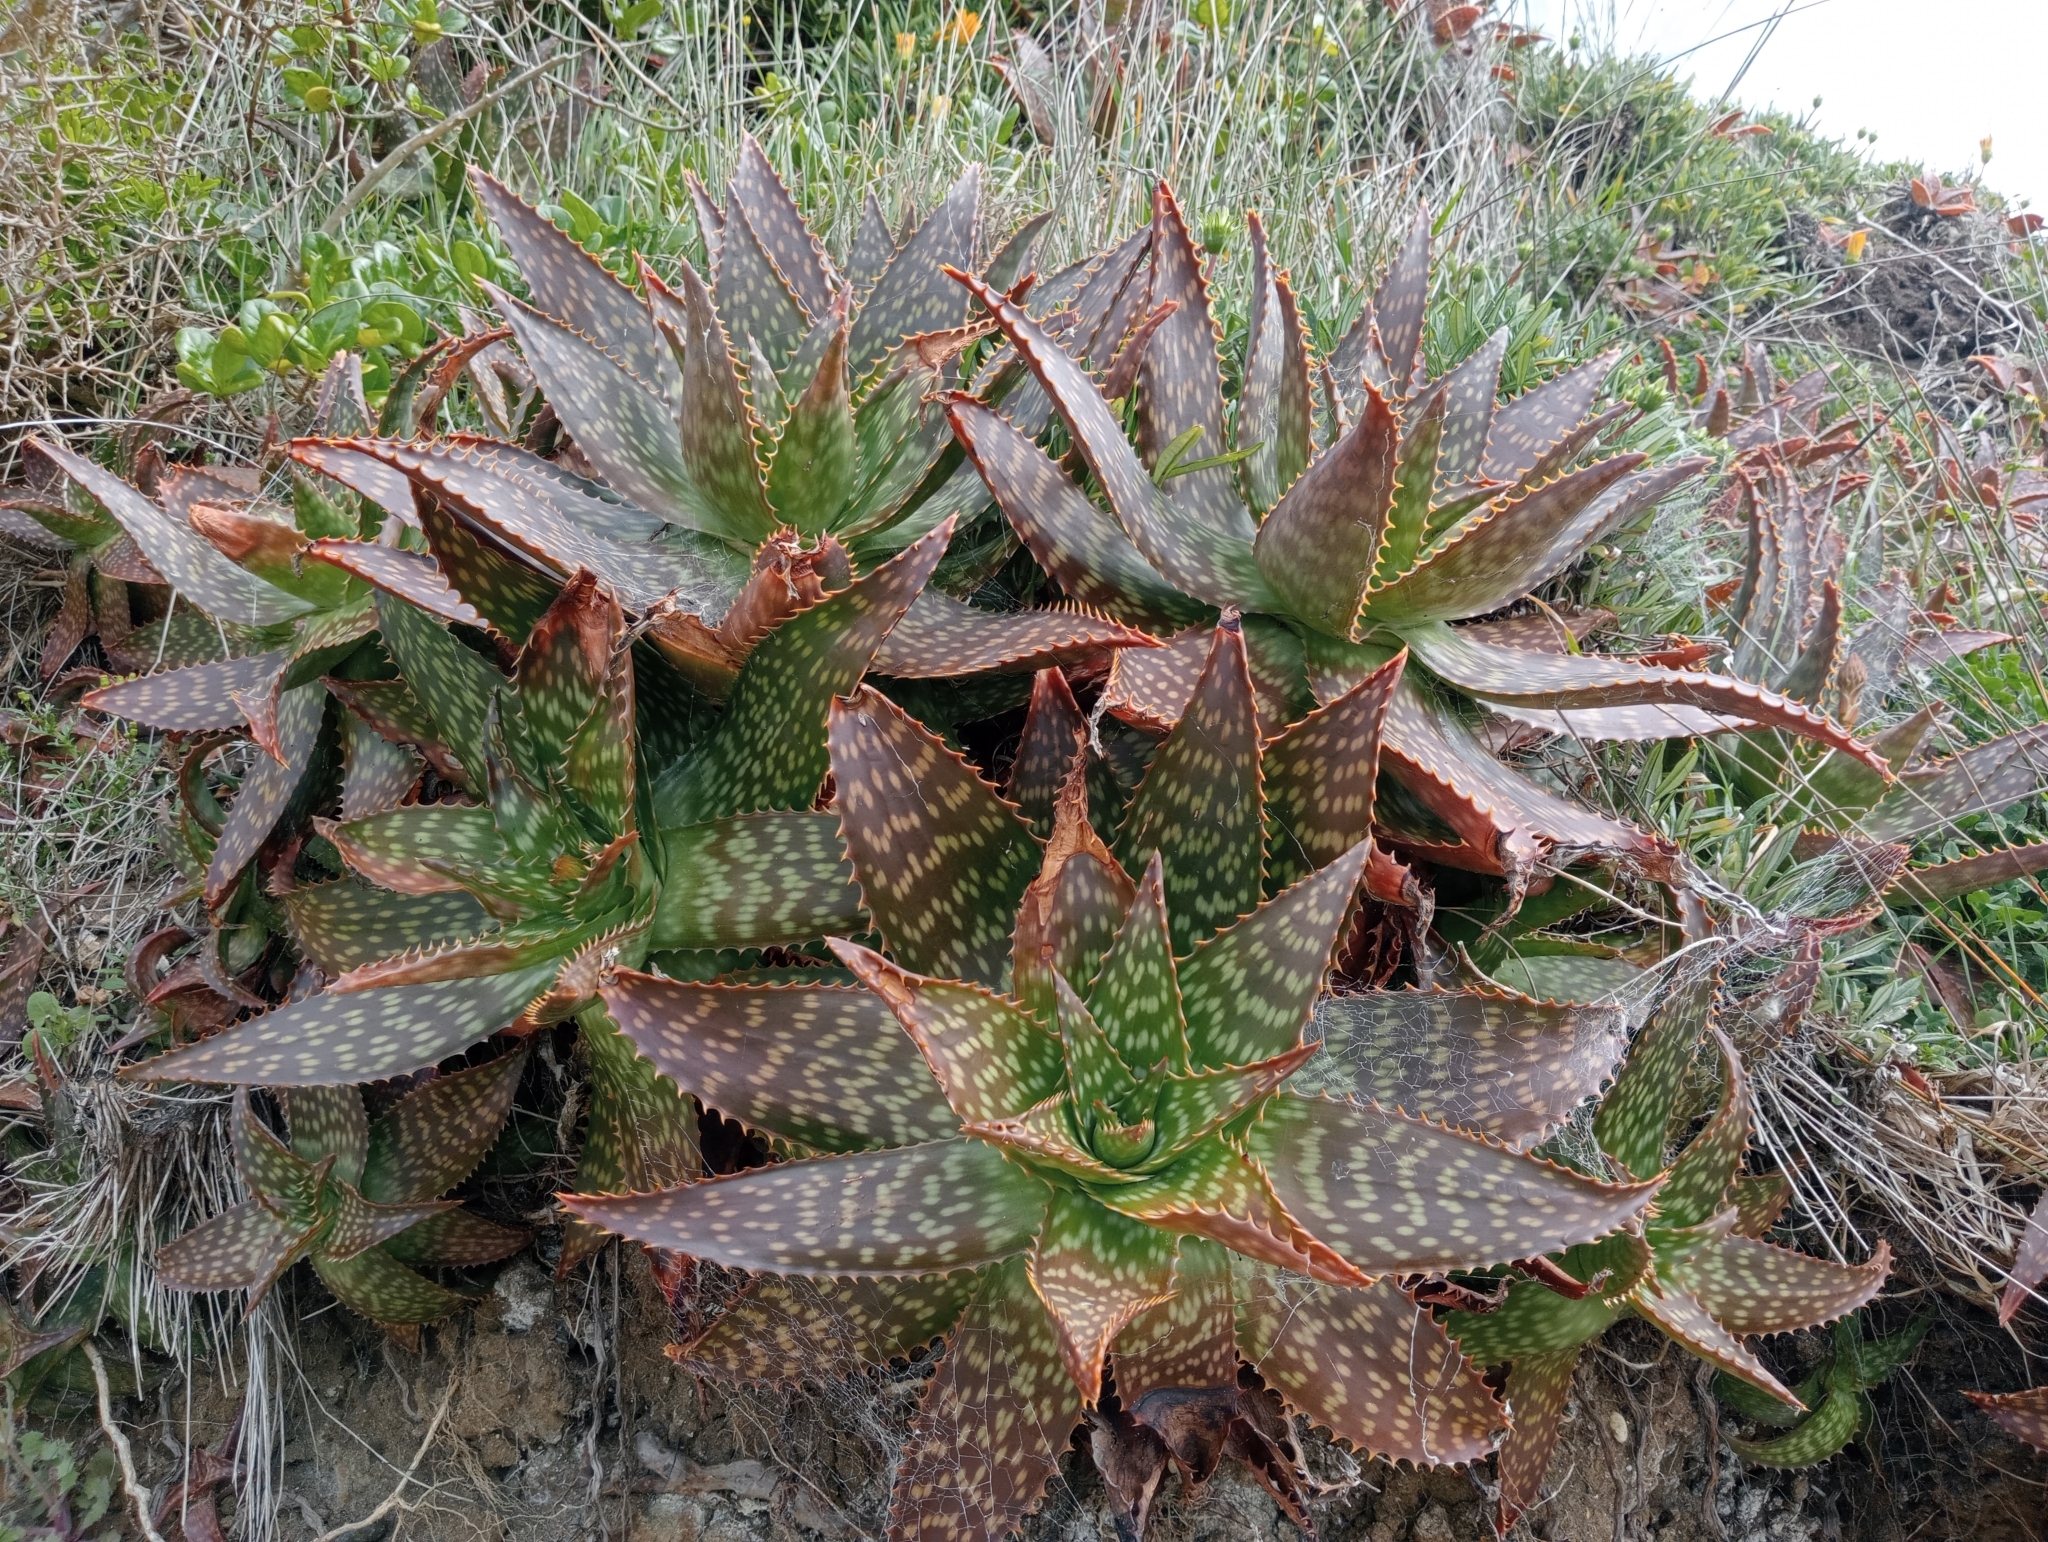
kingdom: Plantae
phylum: Tracheophyta
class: Liliopsida
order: Asparagales
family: Asphodelaceae
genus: Aloe
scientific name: Aloe maculata
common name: Broadleaf aloe
